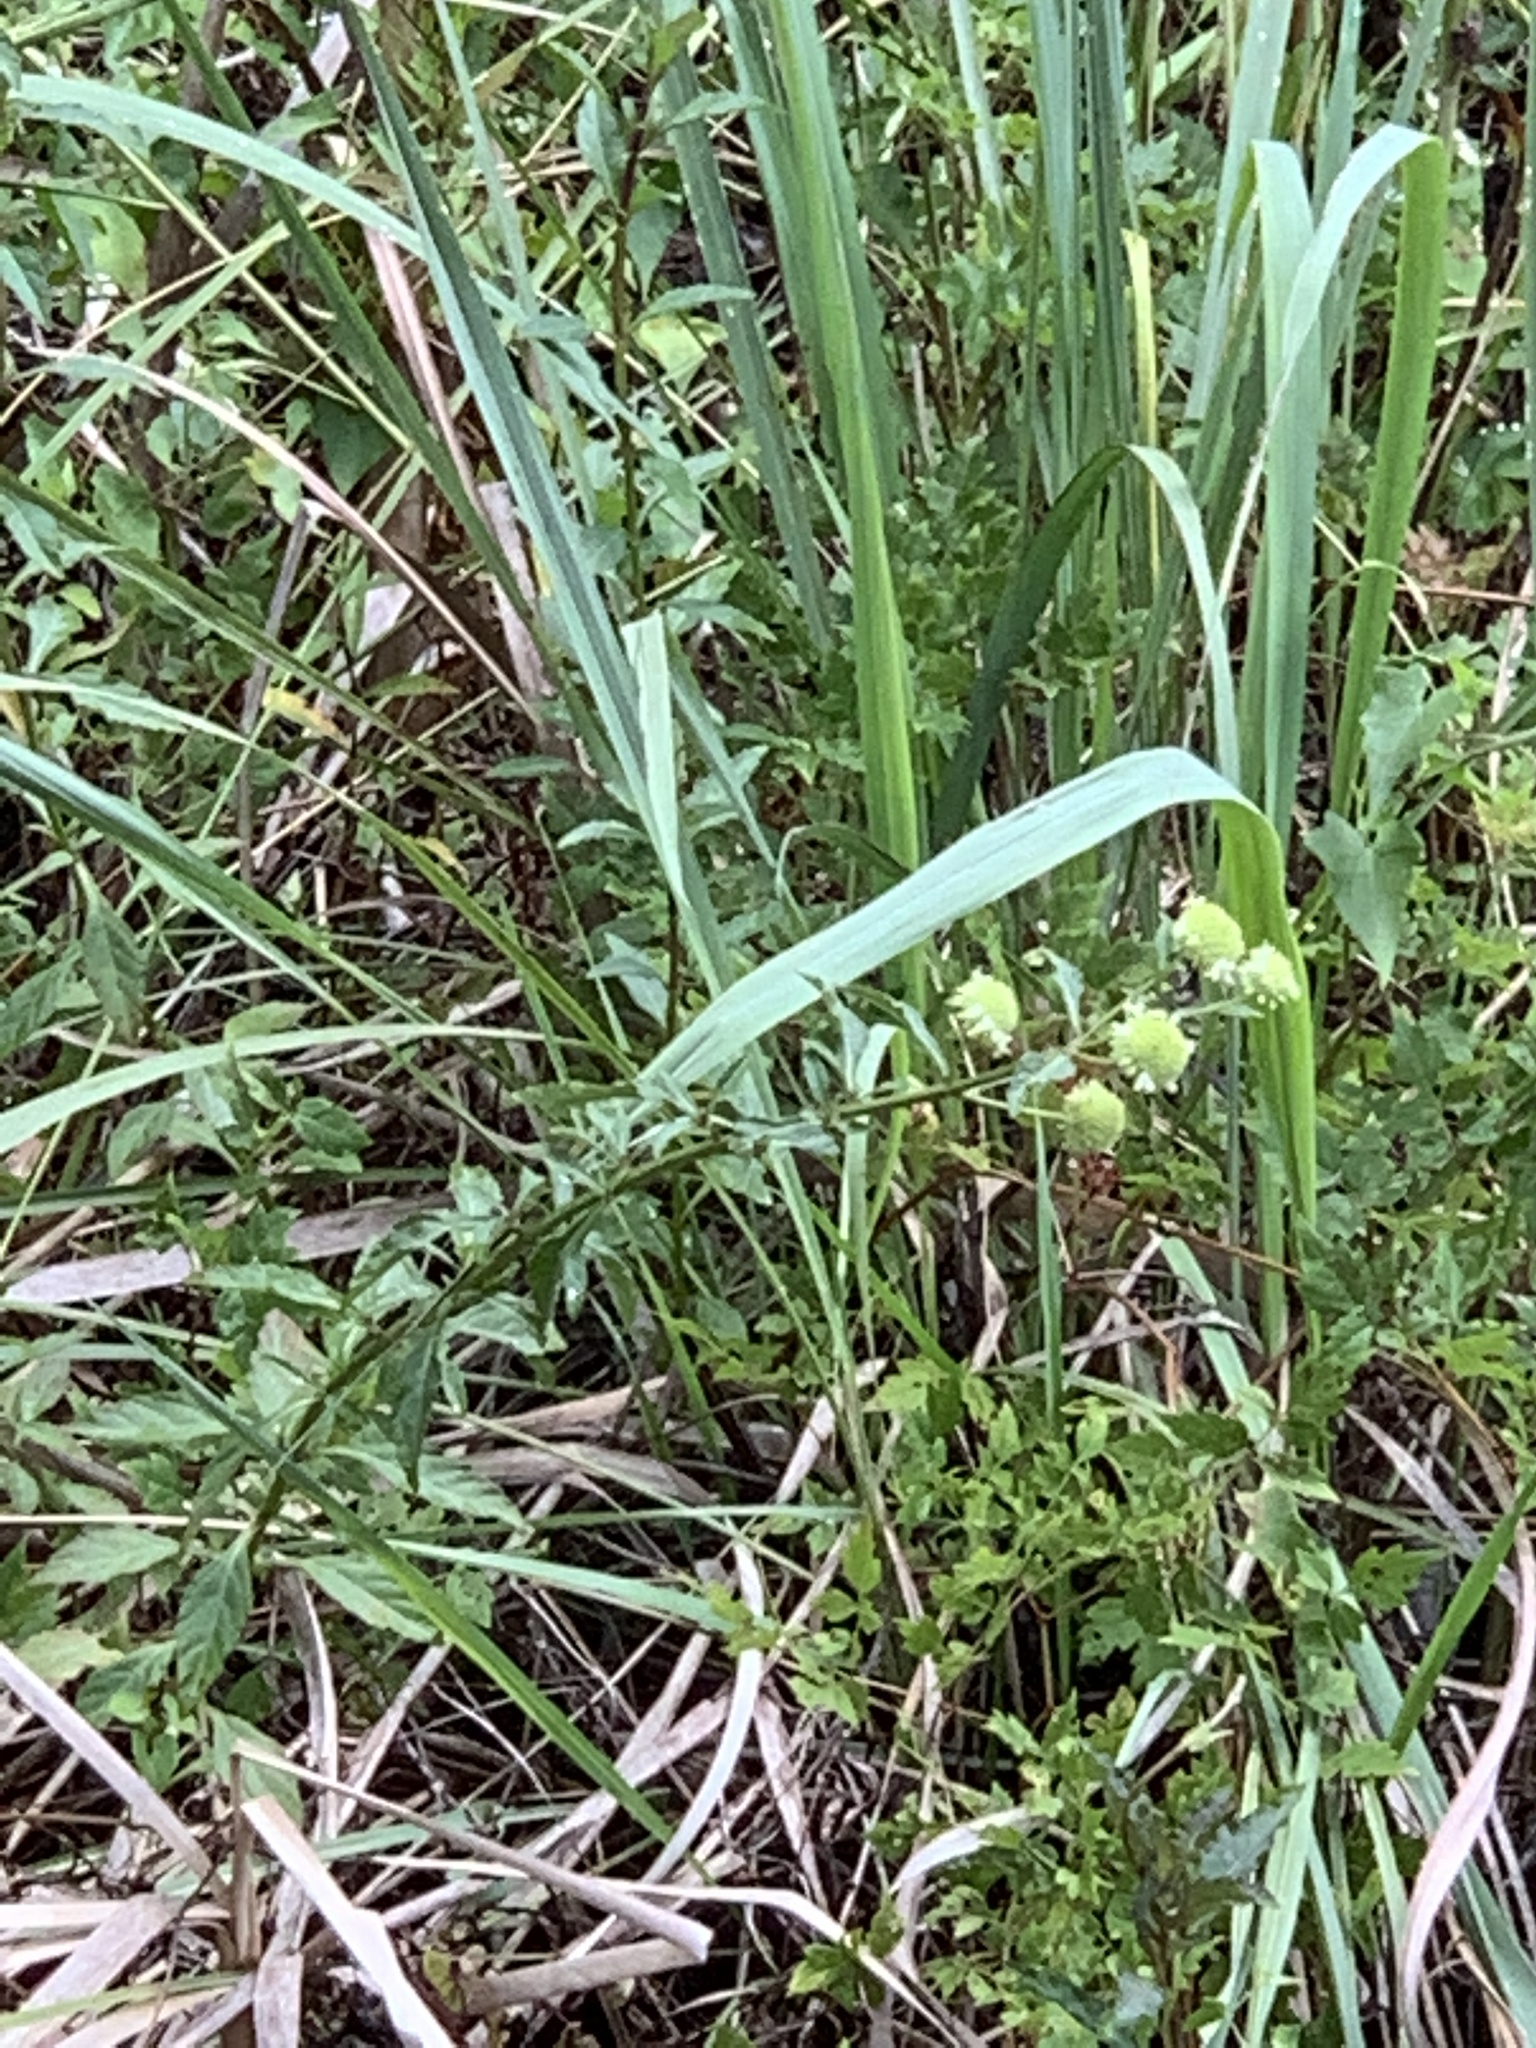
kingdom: Plantae
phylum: Tracheophyta
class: Magnoliopsida
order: Lamiales
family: Lamiaceae
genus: Hyptis
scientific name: Hyptis alata
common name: Cluster bush-mint
